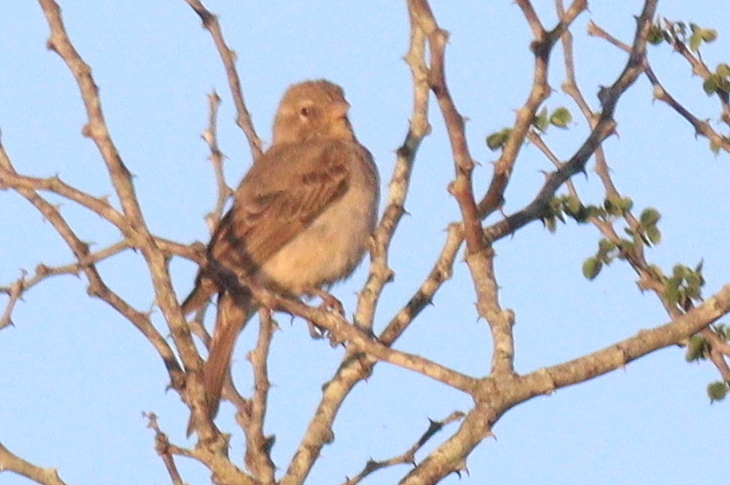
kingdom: Animalia
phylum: Chordata
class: Aves
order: Passeriformes
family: Passeridae
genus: Gymnoris
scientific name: Gymnoris pyrgita
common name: Yellow-spotted petronia
